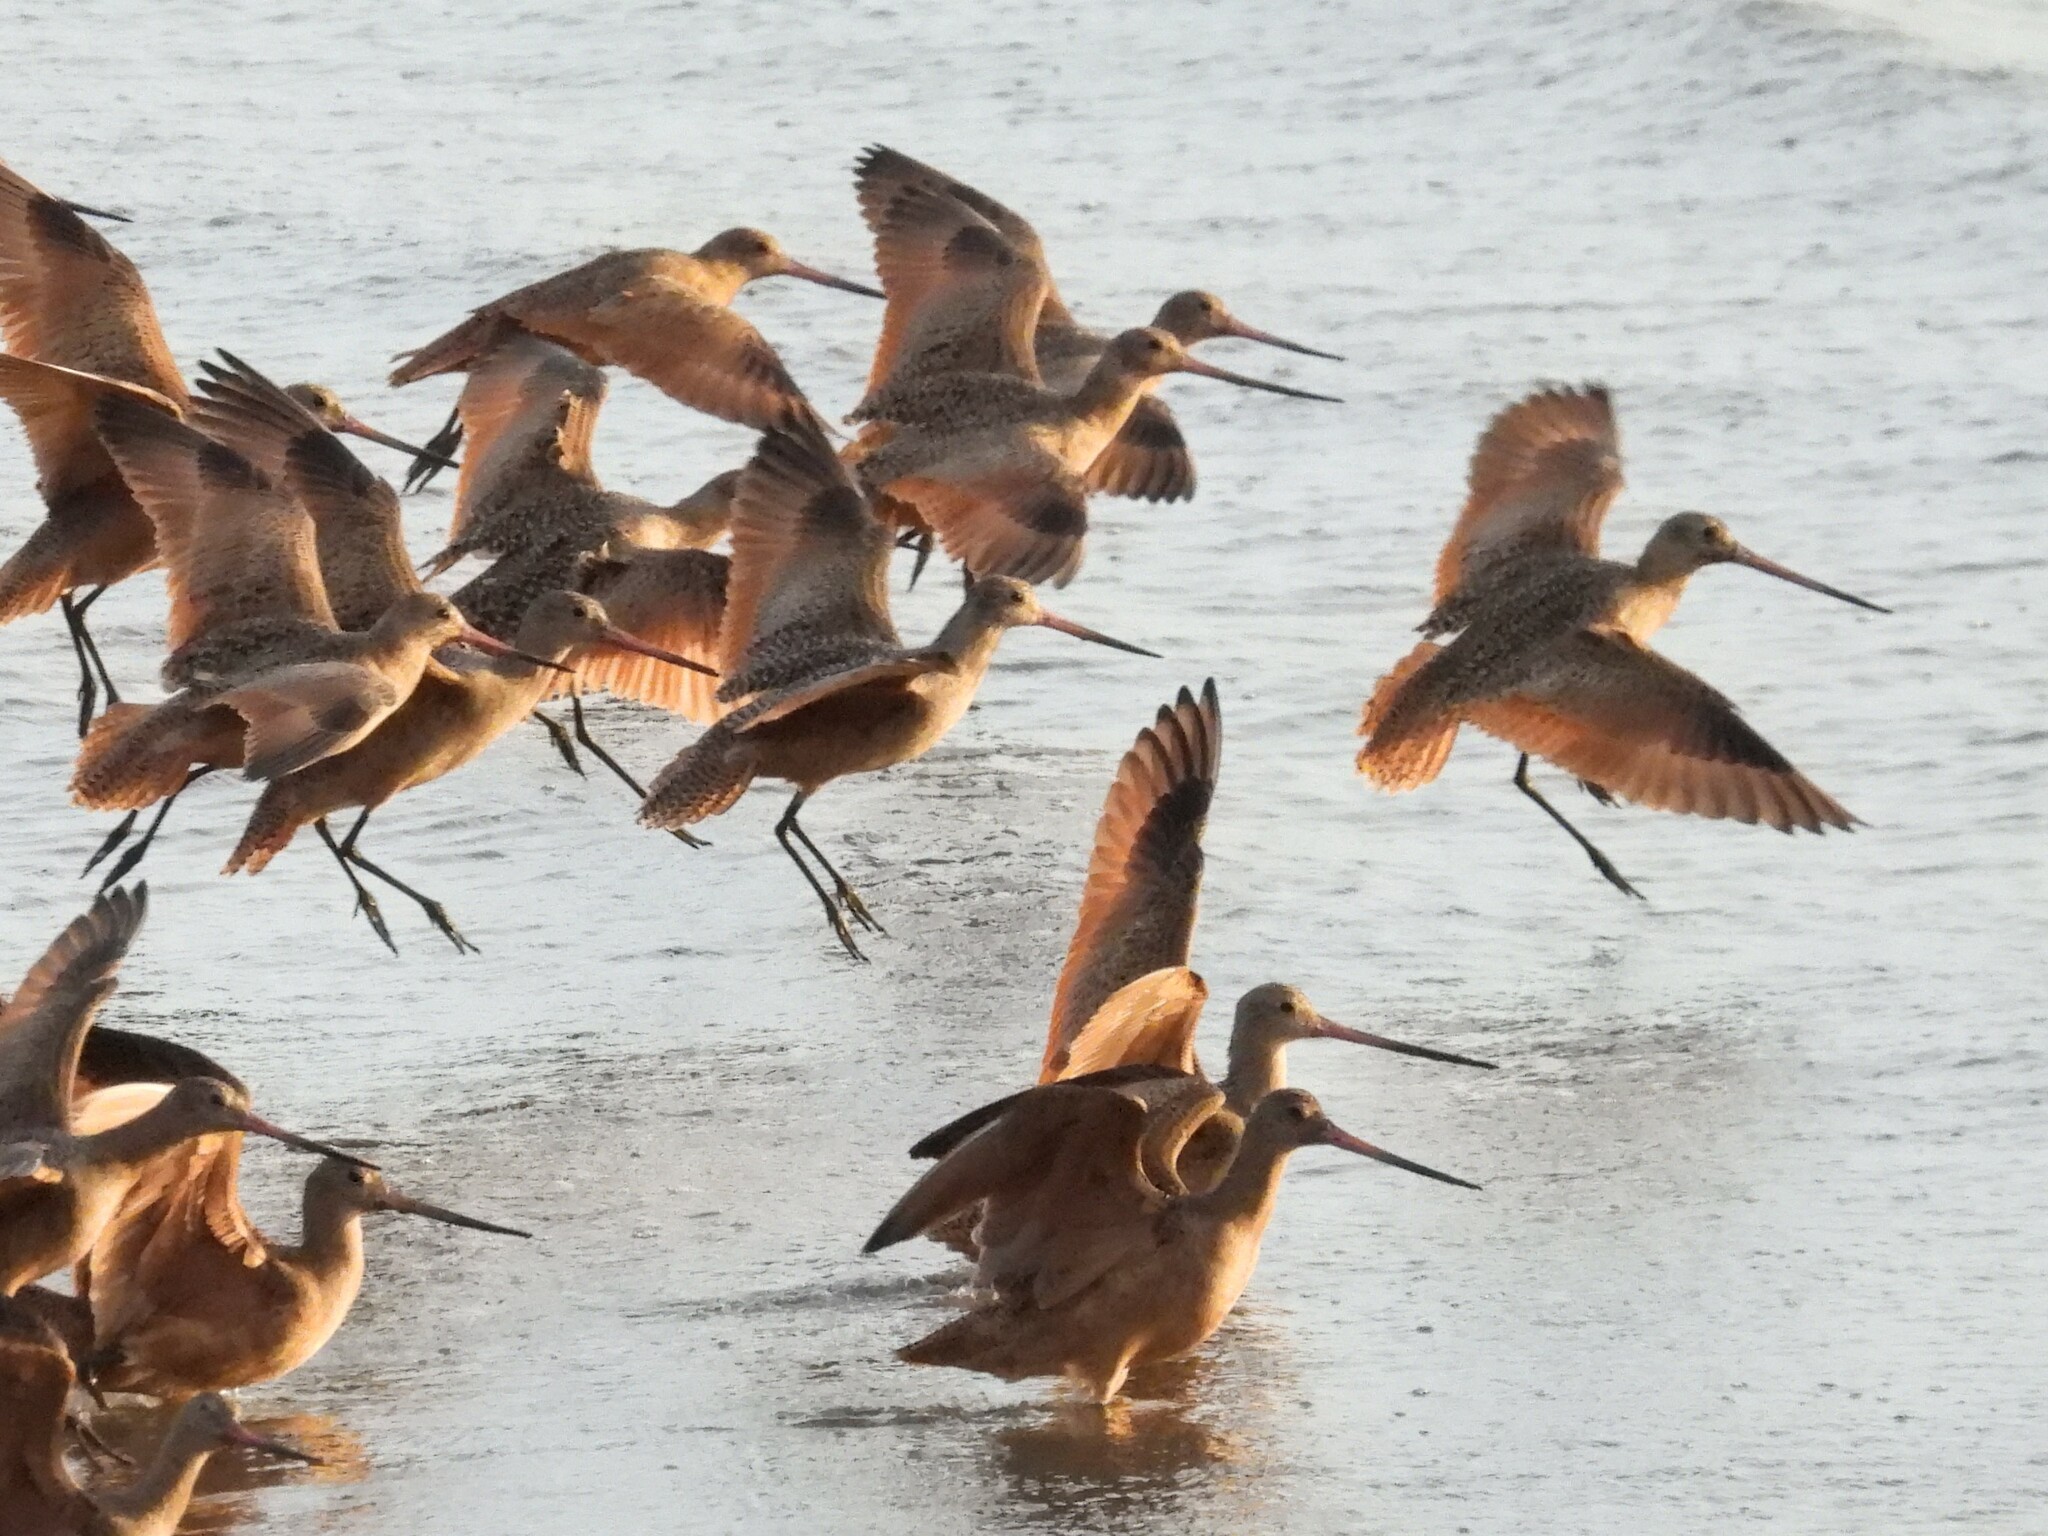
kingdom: Animalia
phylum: Chordata
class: Aves
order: Charadriiformes
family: Scolopacidae
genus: Limosa
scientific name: Limosa fedoa
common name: Marbled godwit
